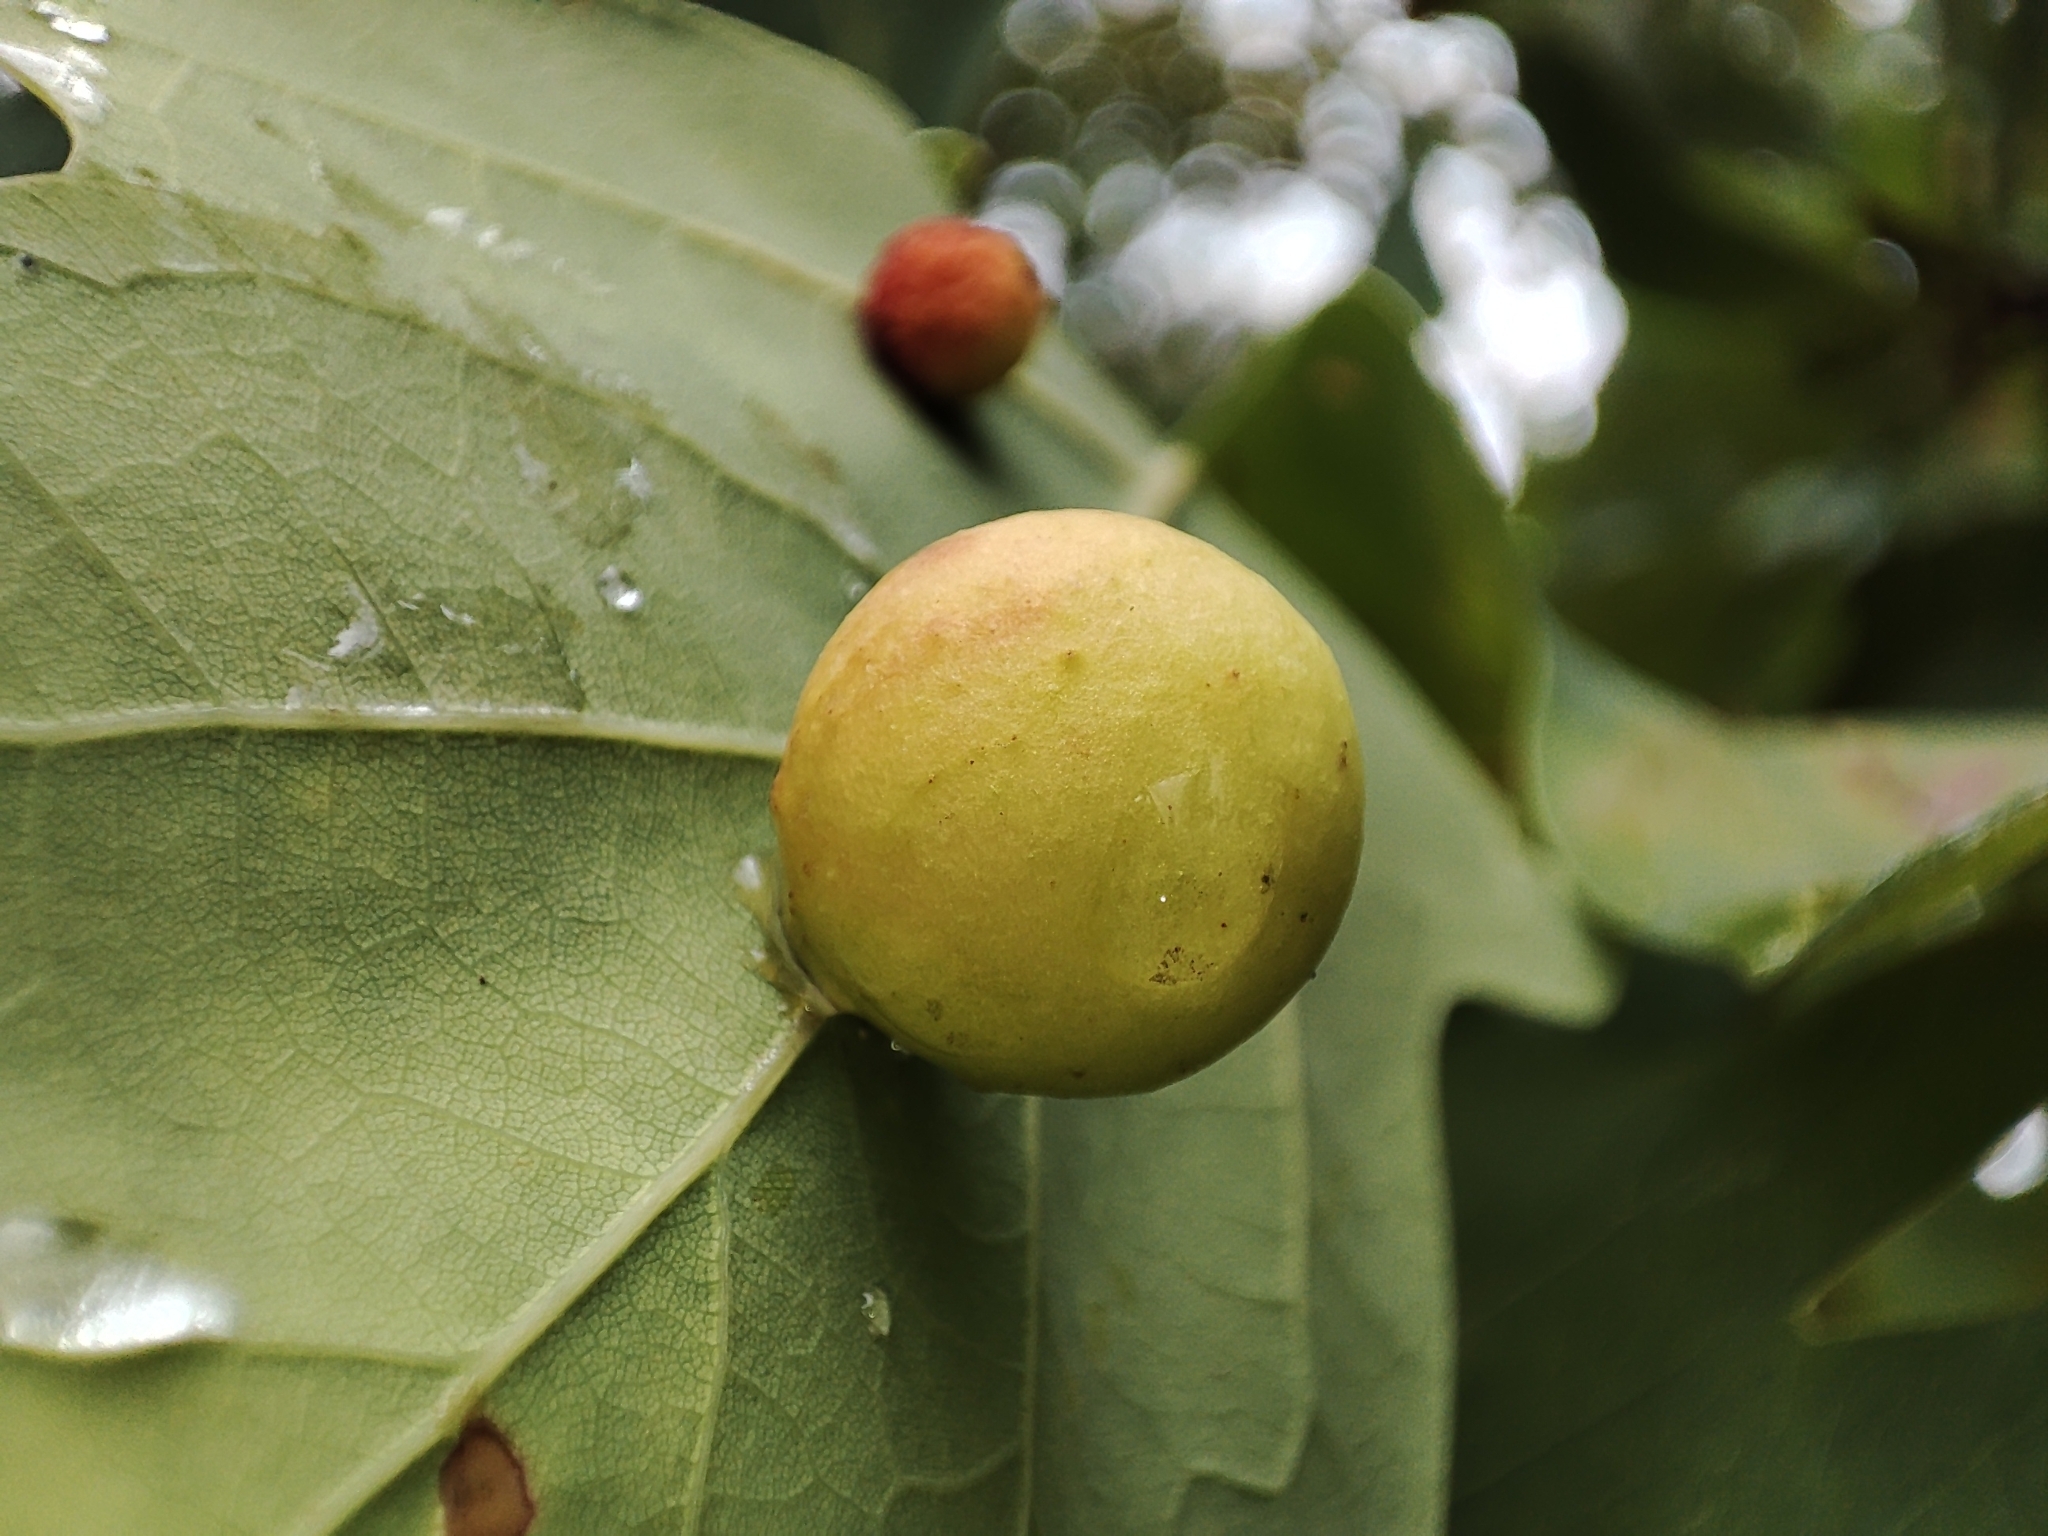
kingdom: Animalia
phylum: Arthropoda
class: Insecta
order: Hymenoptera
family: Cynipidae
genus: Cynips
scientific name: Cynips quercusfolii
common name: Cherry gall
